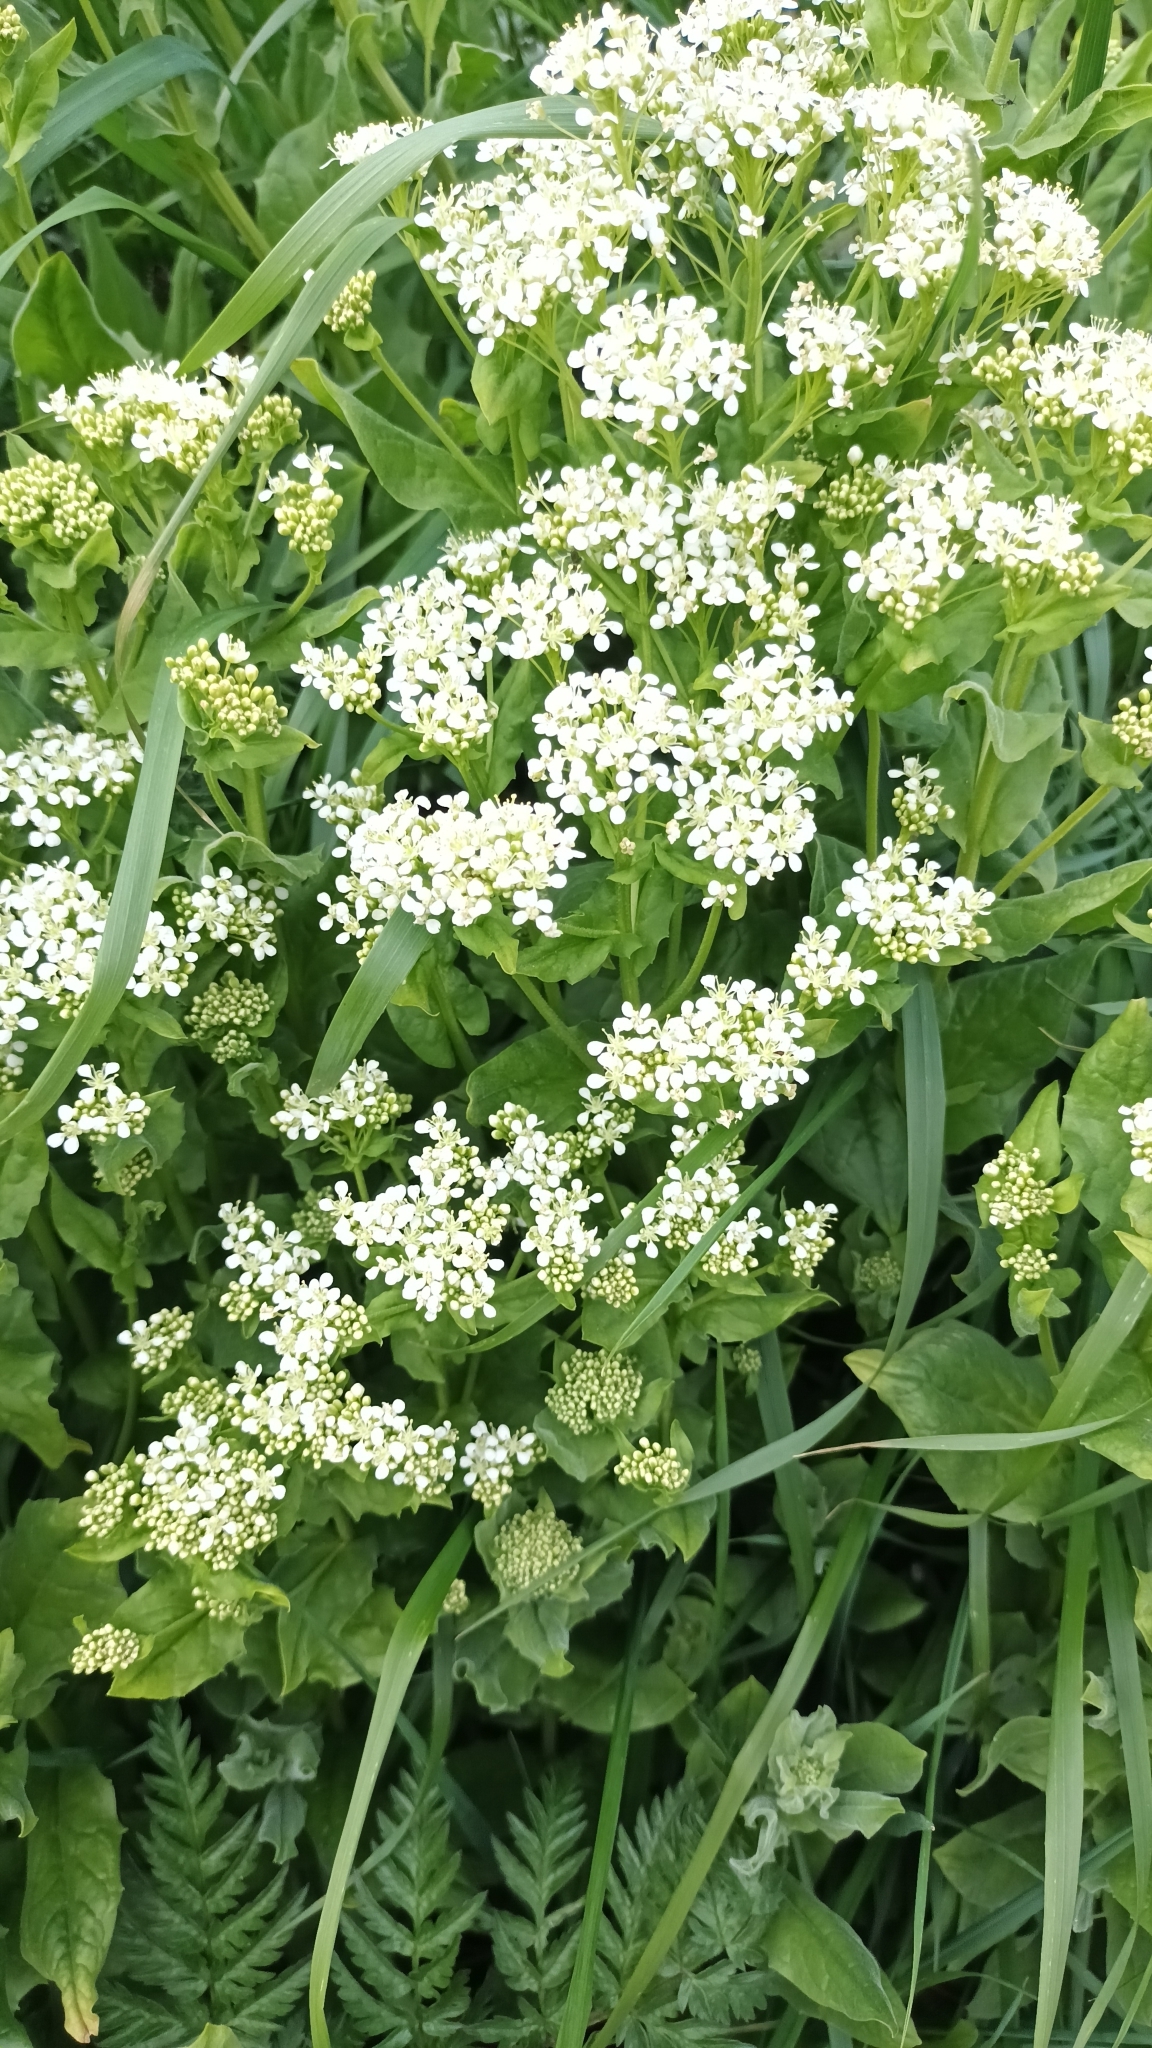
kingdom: Plantae
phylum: Tracheophyta
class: Magnoliopsida
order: Brassicales
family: Brassicaceae
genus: Lepidium
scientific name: Lepidium draba
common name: Hoary cress
